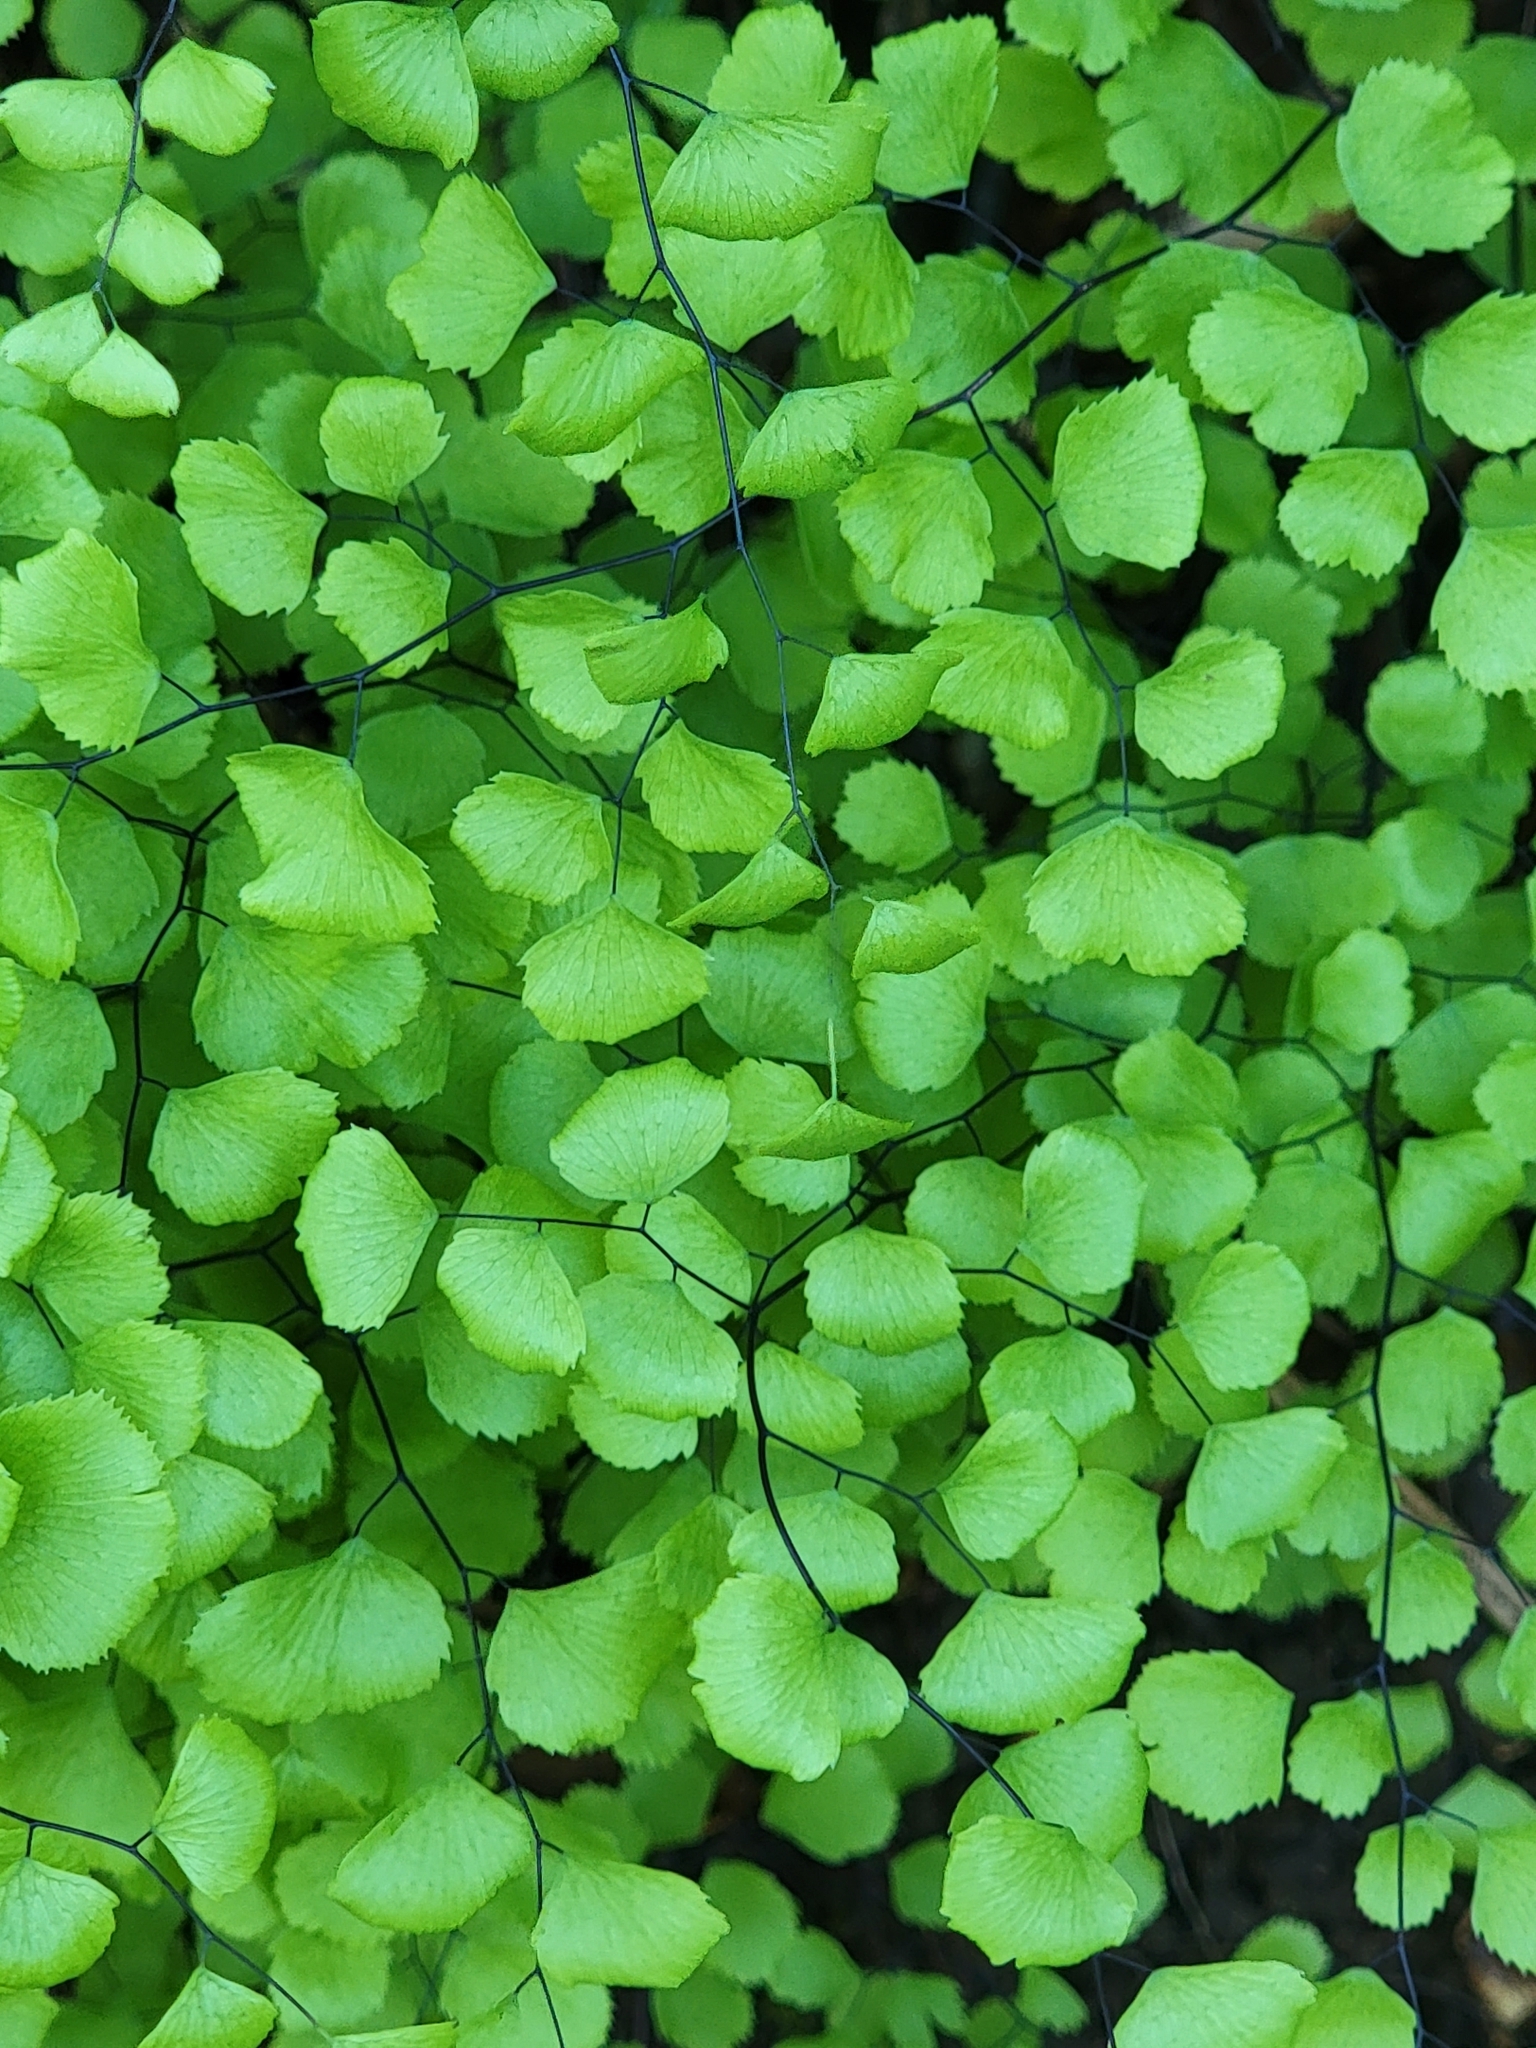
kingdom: Plantae
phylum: Tracheophyta
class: Polypodiopsida
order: Polypodiales
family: Pteridaceae
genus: Adiantum
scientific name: Adiantum jordanii
